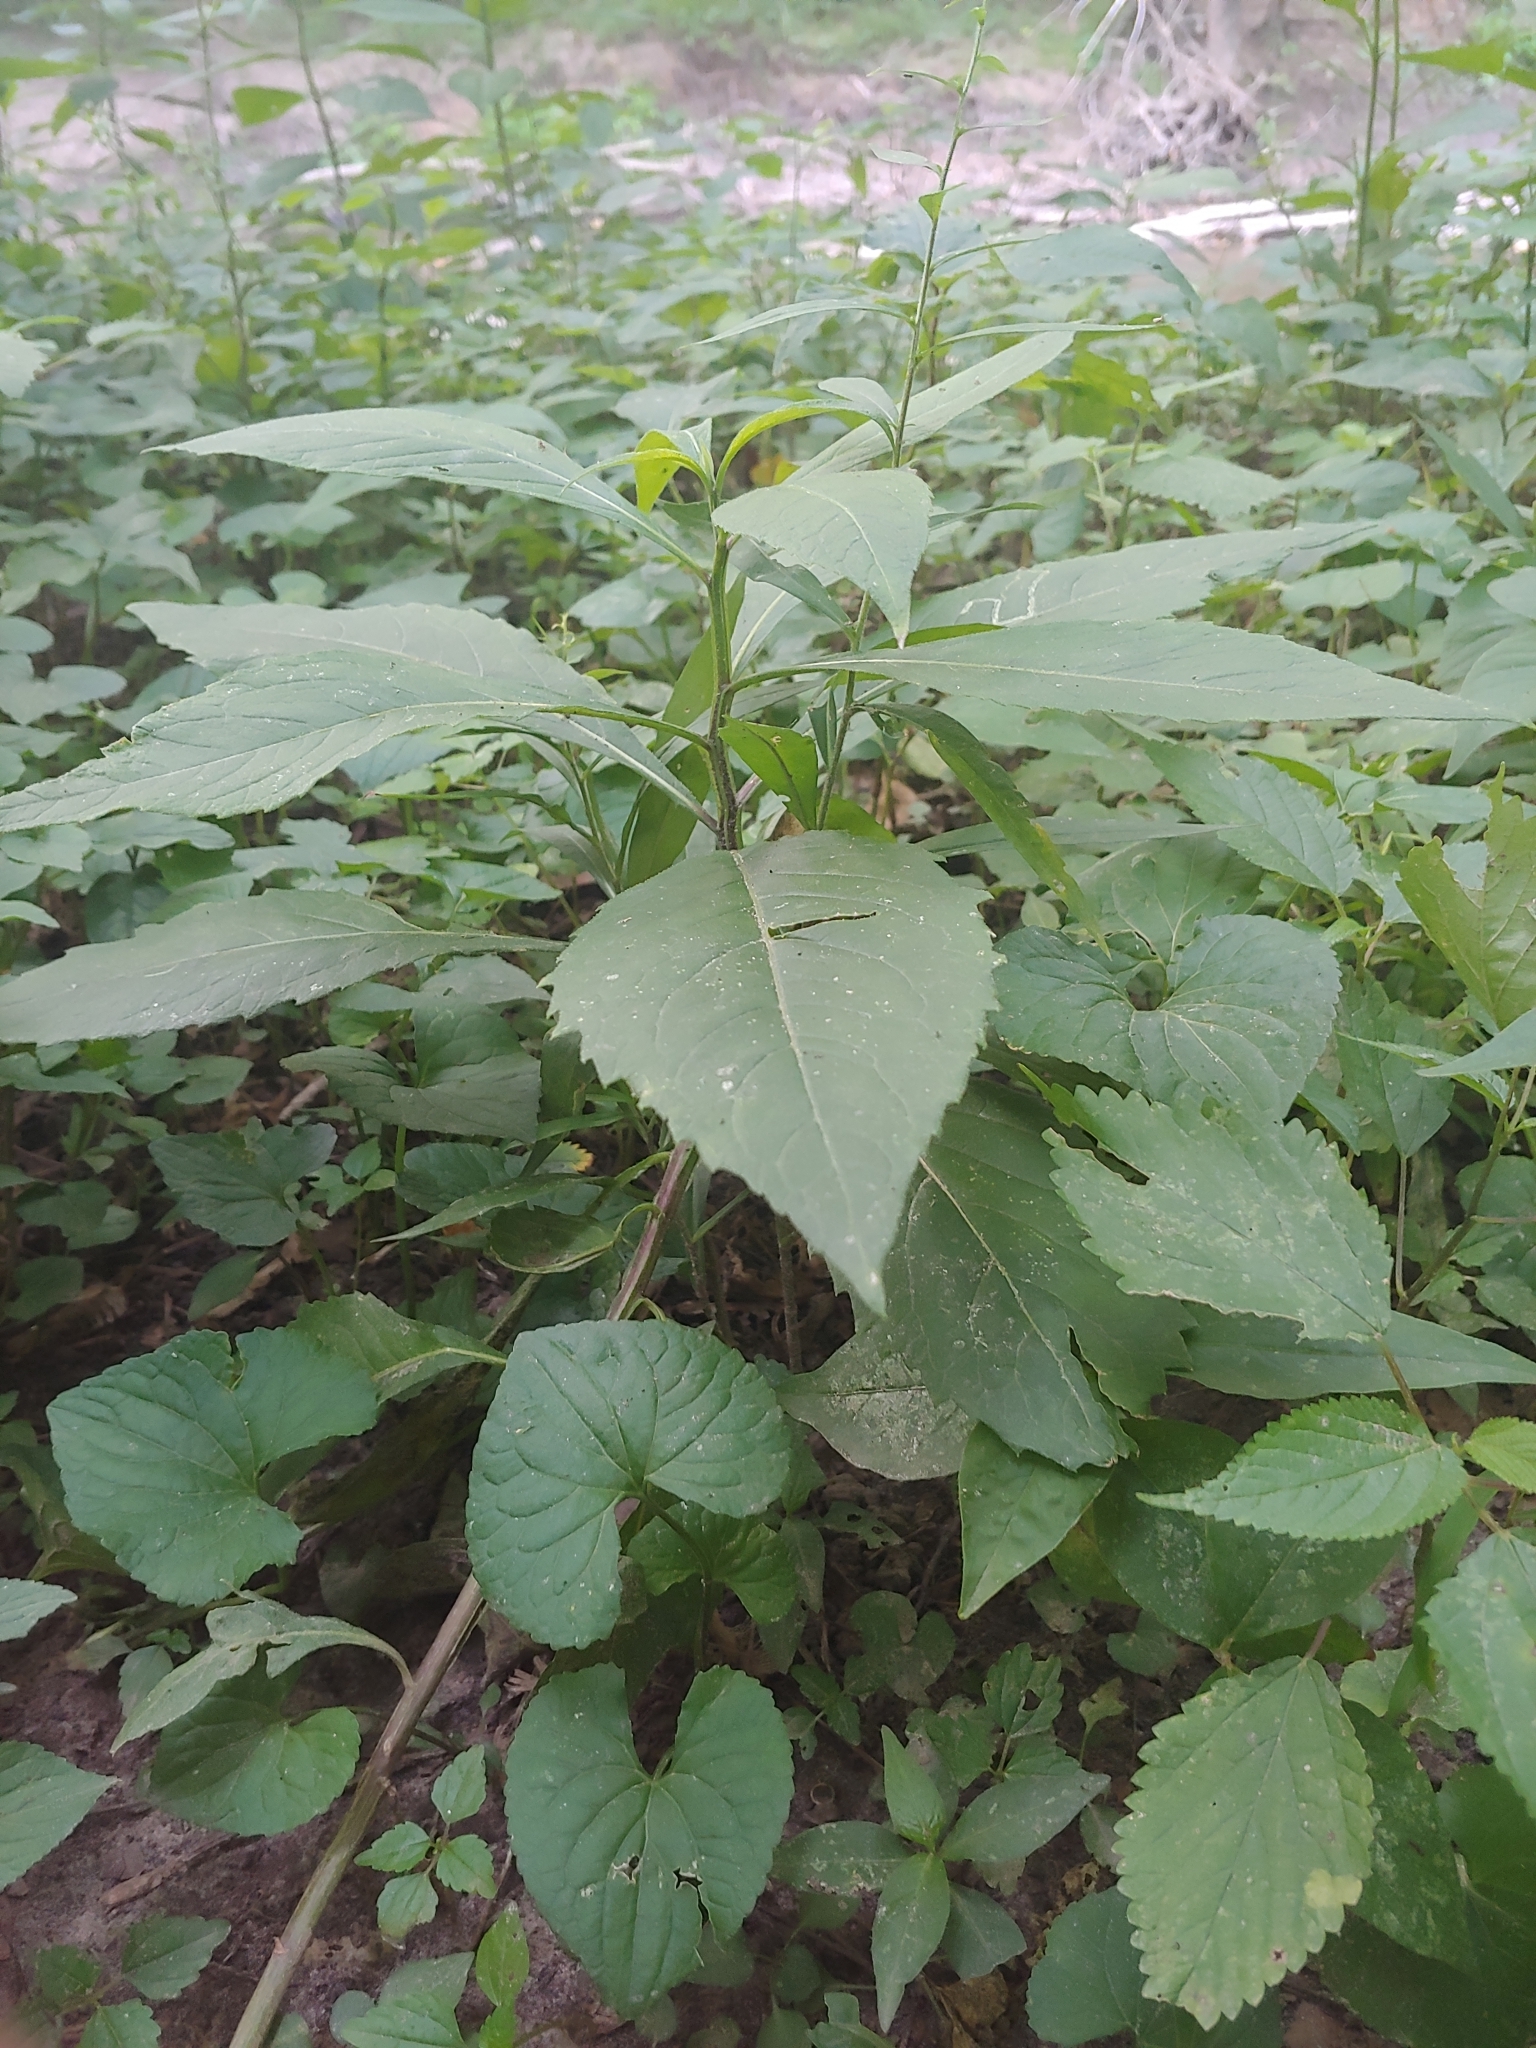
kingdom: Plantae
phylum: Tracheophyta
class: Magnoliopsida
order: Asterales
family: Asteraceae
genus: Verbesina
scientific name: Verbesina alternifolia
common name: Wingstem
